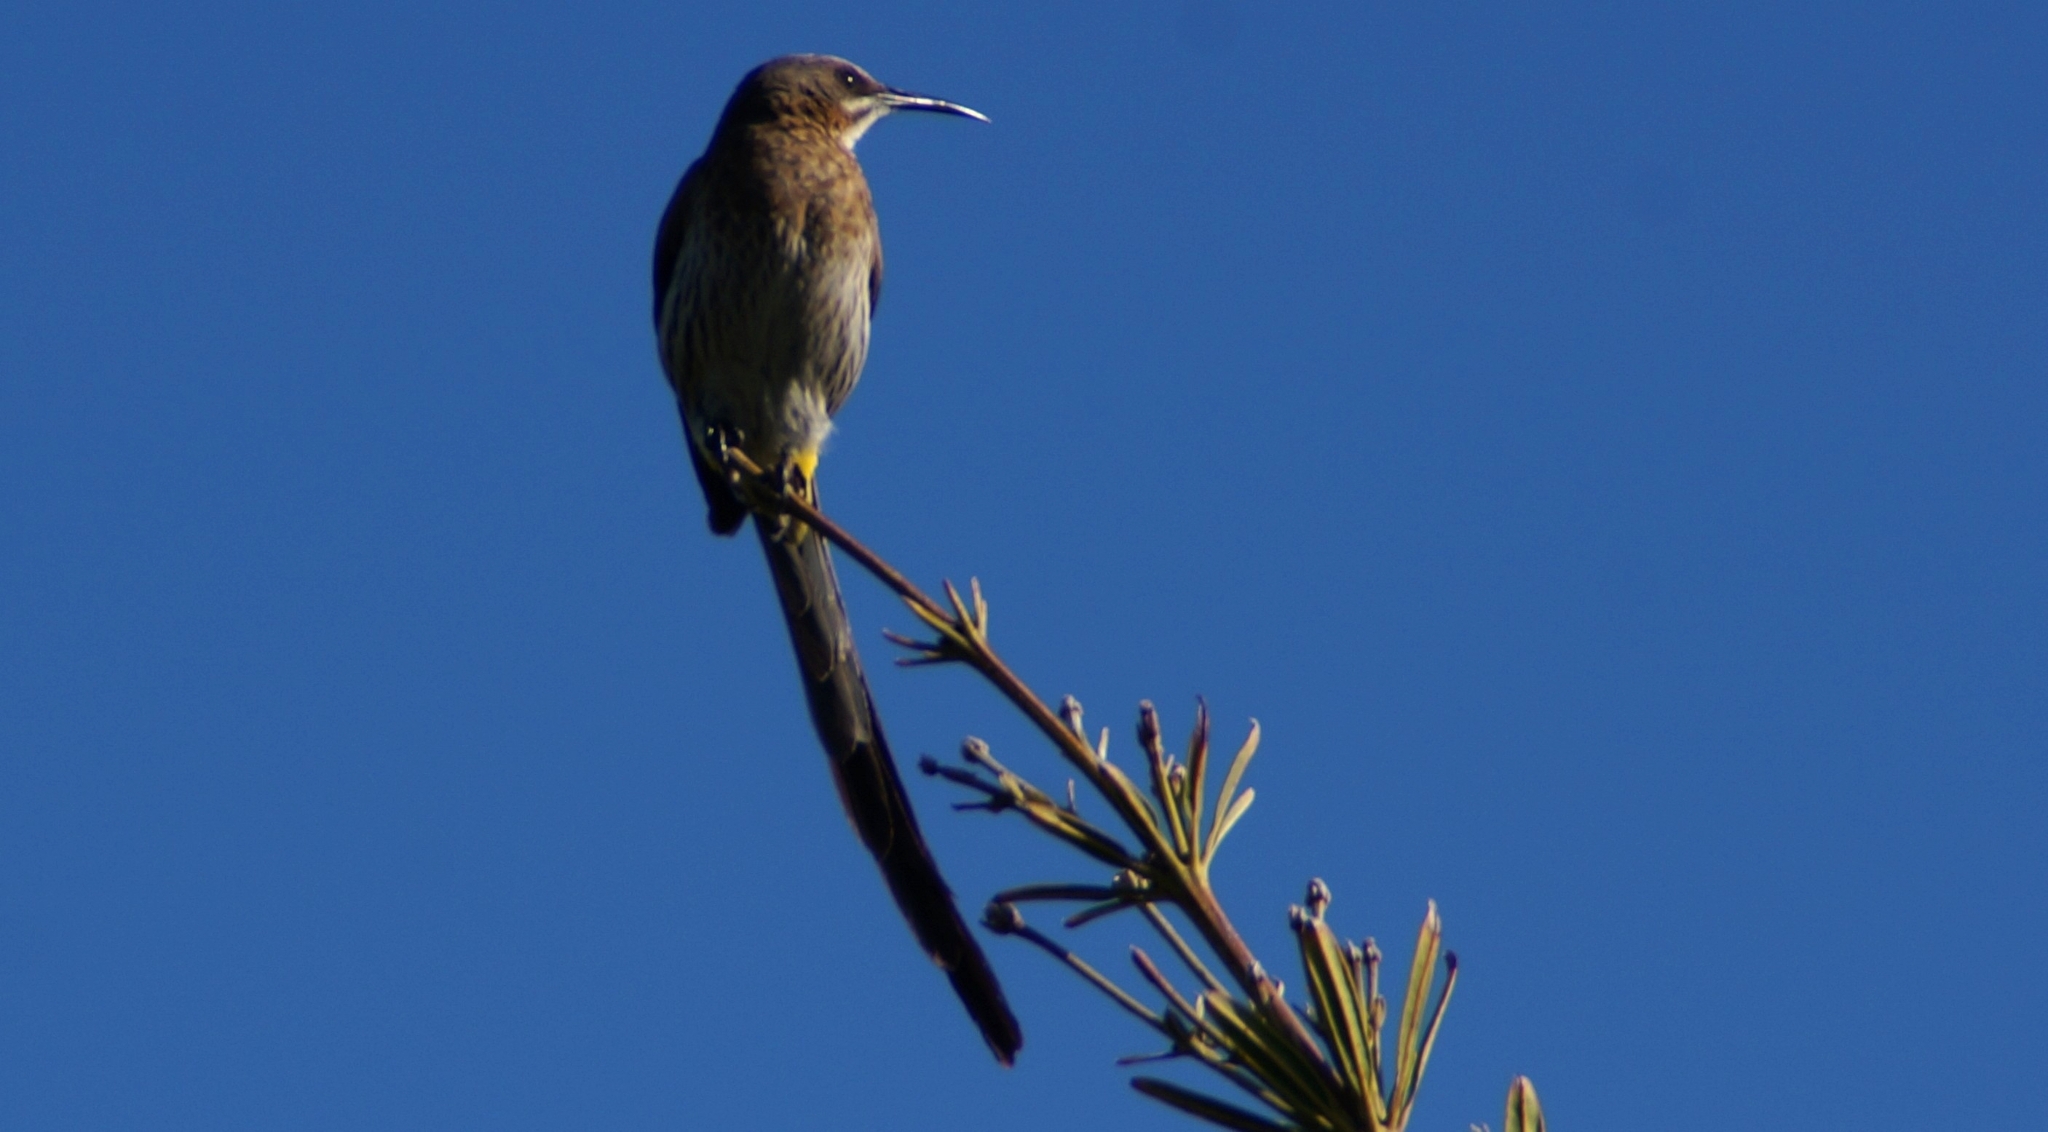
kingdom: Animalia
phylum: Chordata
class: Aves
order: Passeriformes
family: Promeropidae
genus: Promerops
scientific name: Promerops cafer
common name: Cape sugarbird
